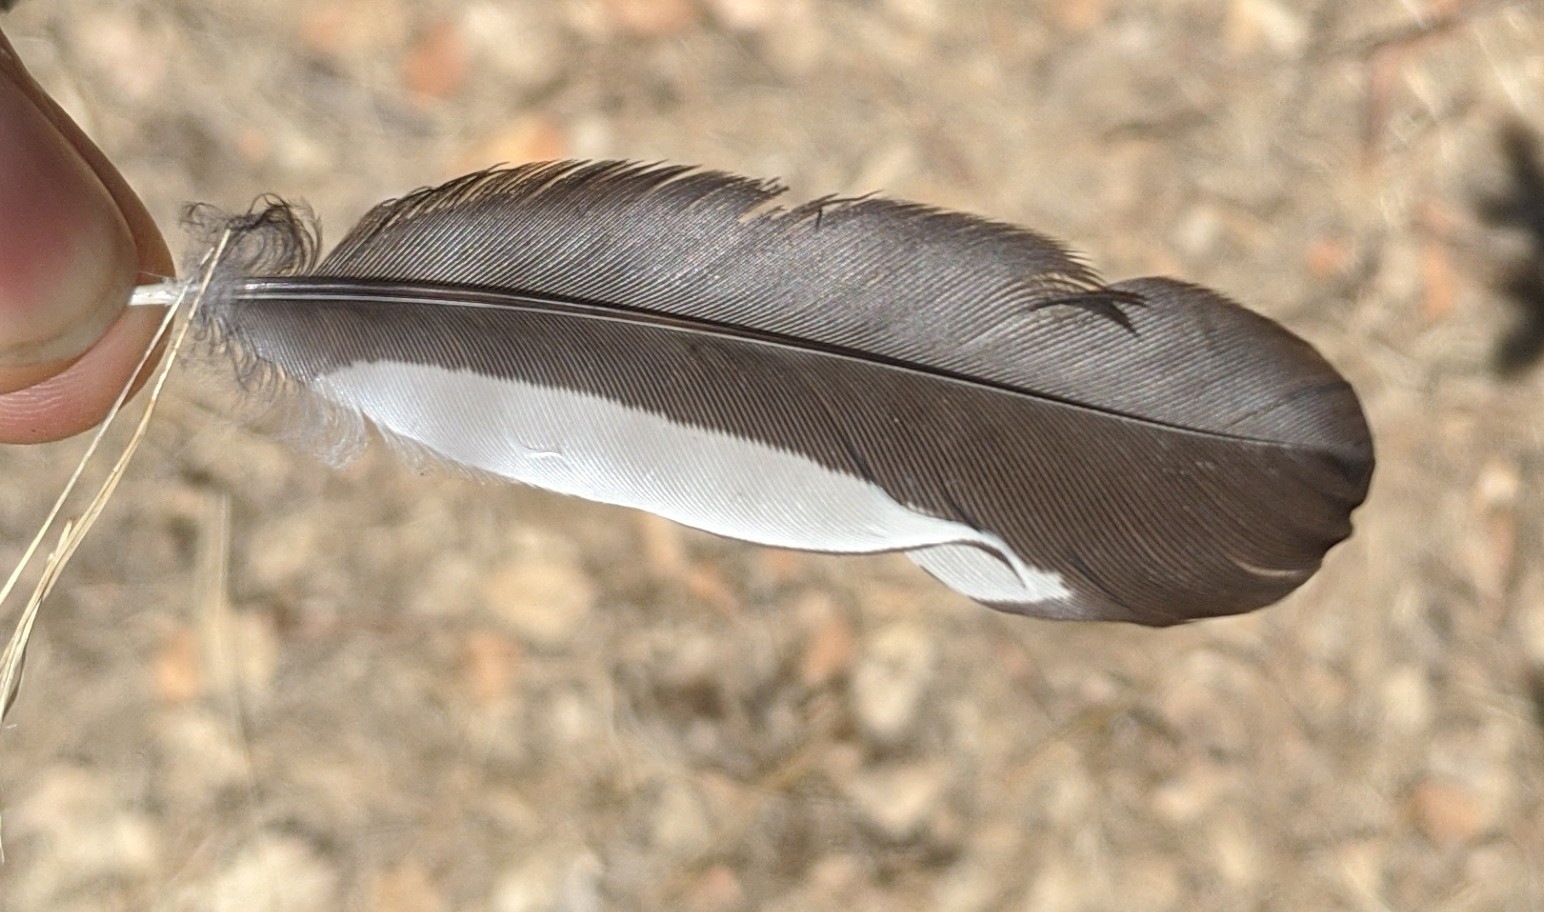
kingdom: Animalia
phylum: Chordata
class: Aves
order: Piciformes
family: Picidae
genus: Melanerpes
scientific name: Melanerpes formicivorus
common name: Acorn woodpecker
